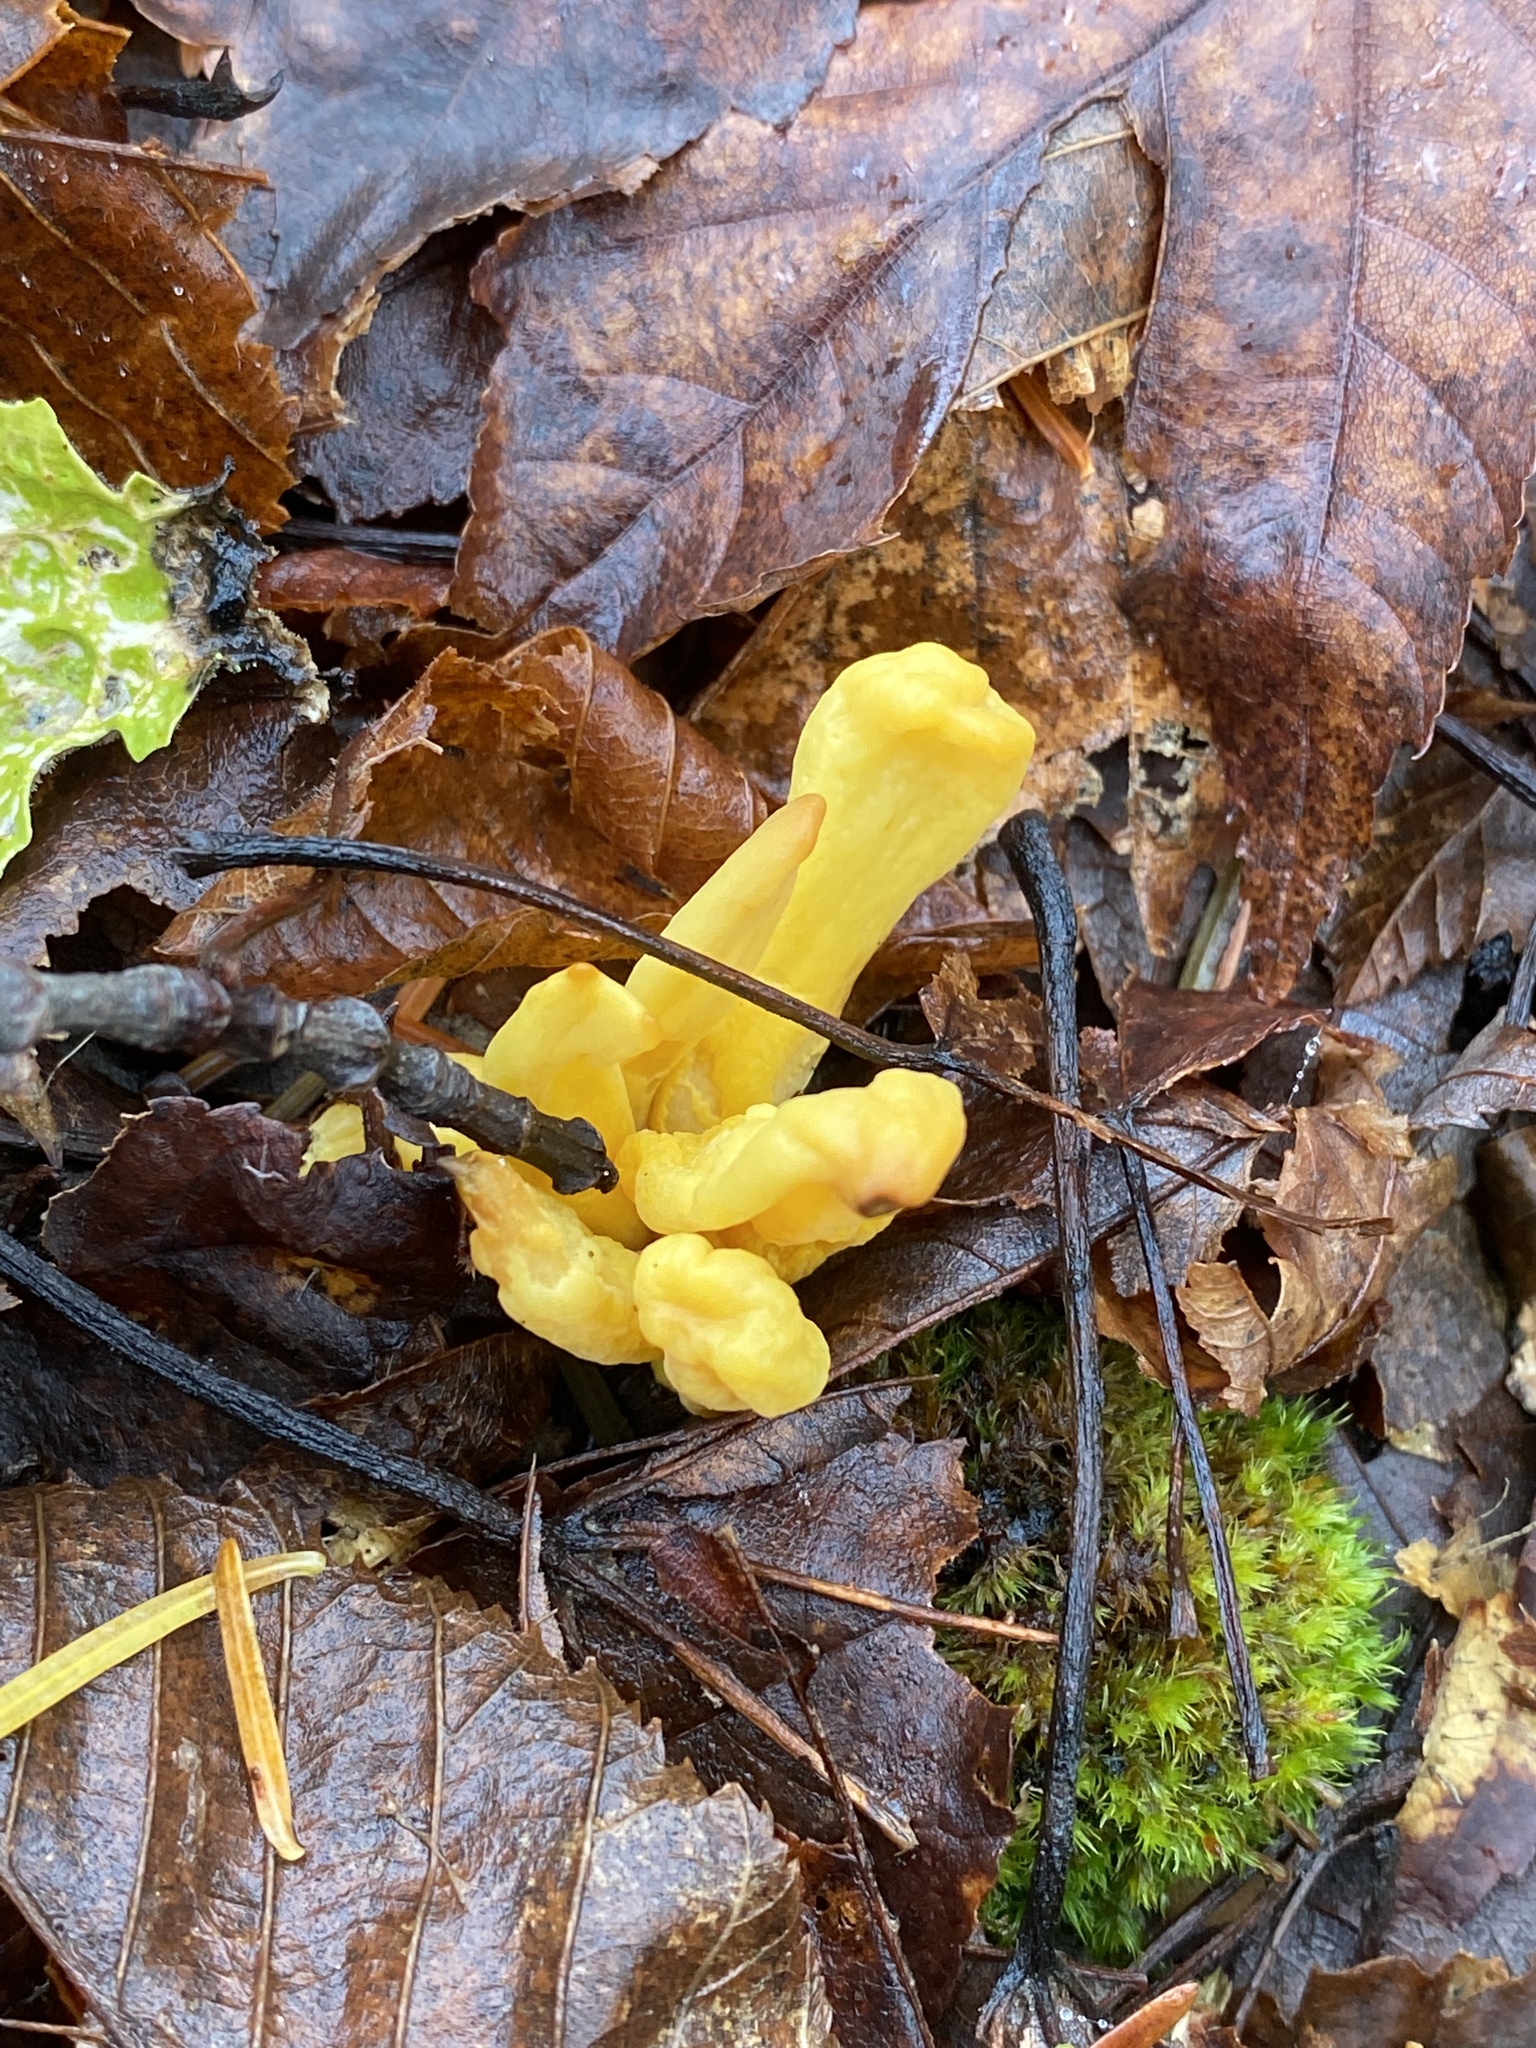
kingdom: Fungi
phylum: Ascomycota
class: Neolectomycetes
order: Neolectales
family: Neolectaceae
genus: Neolecta
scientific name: Neolecta irregularis
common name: Irregular earth tongue
